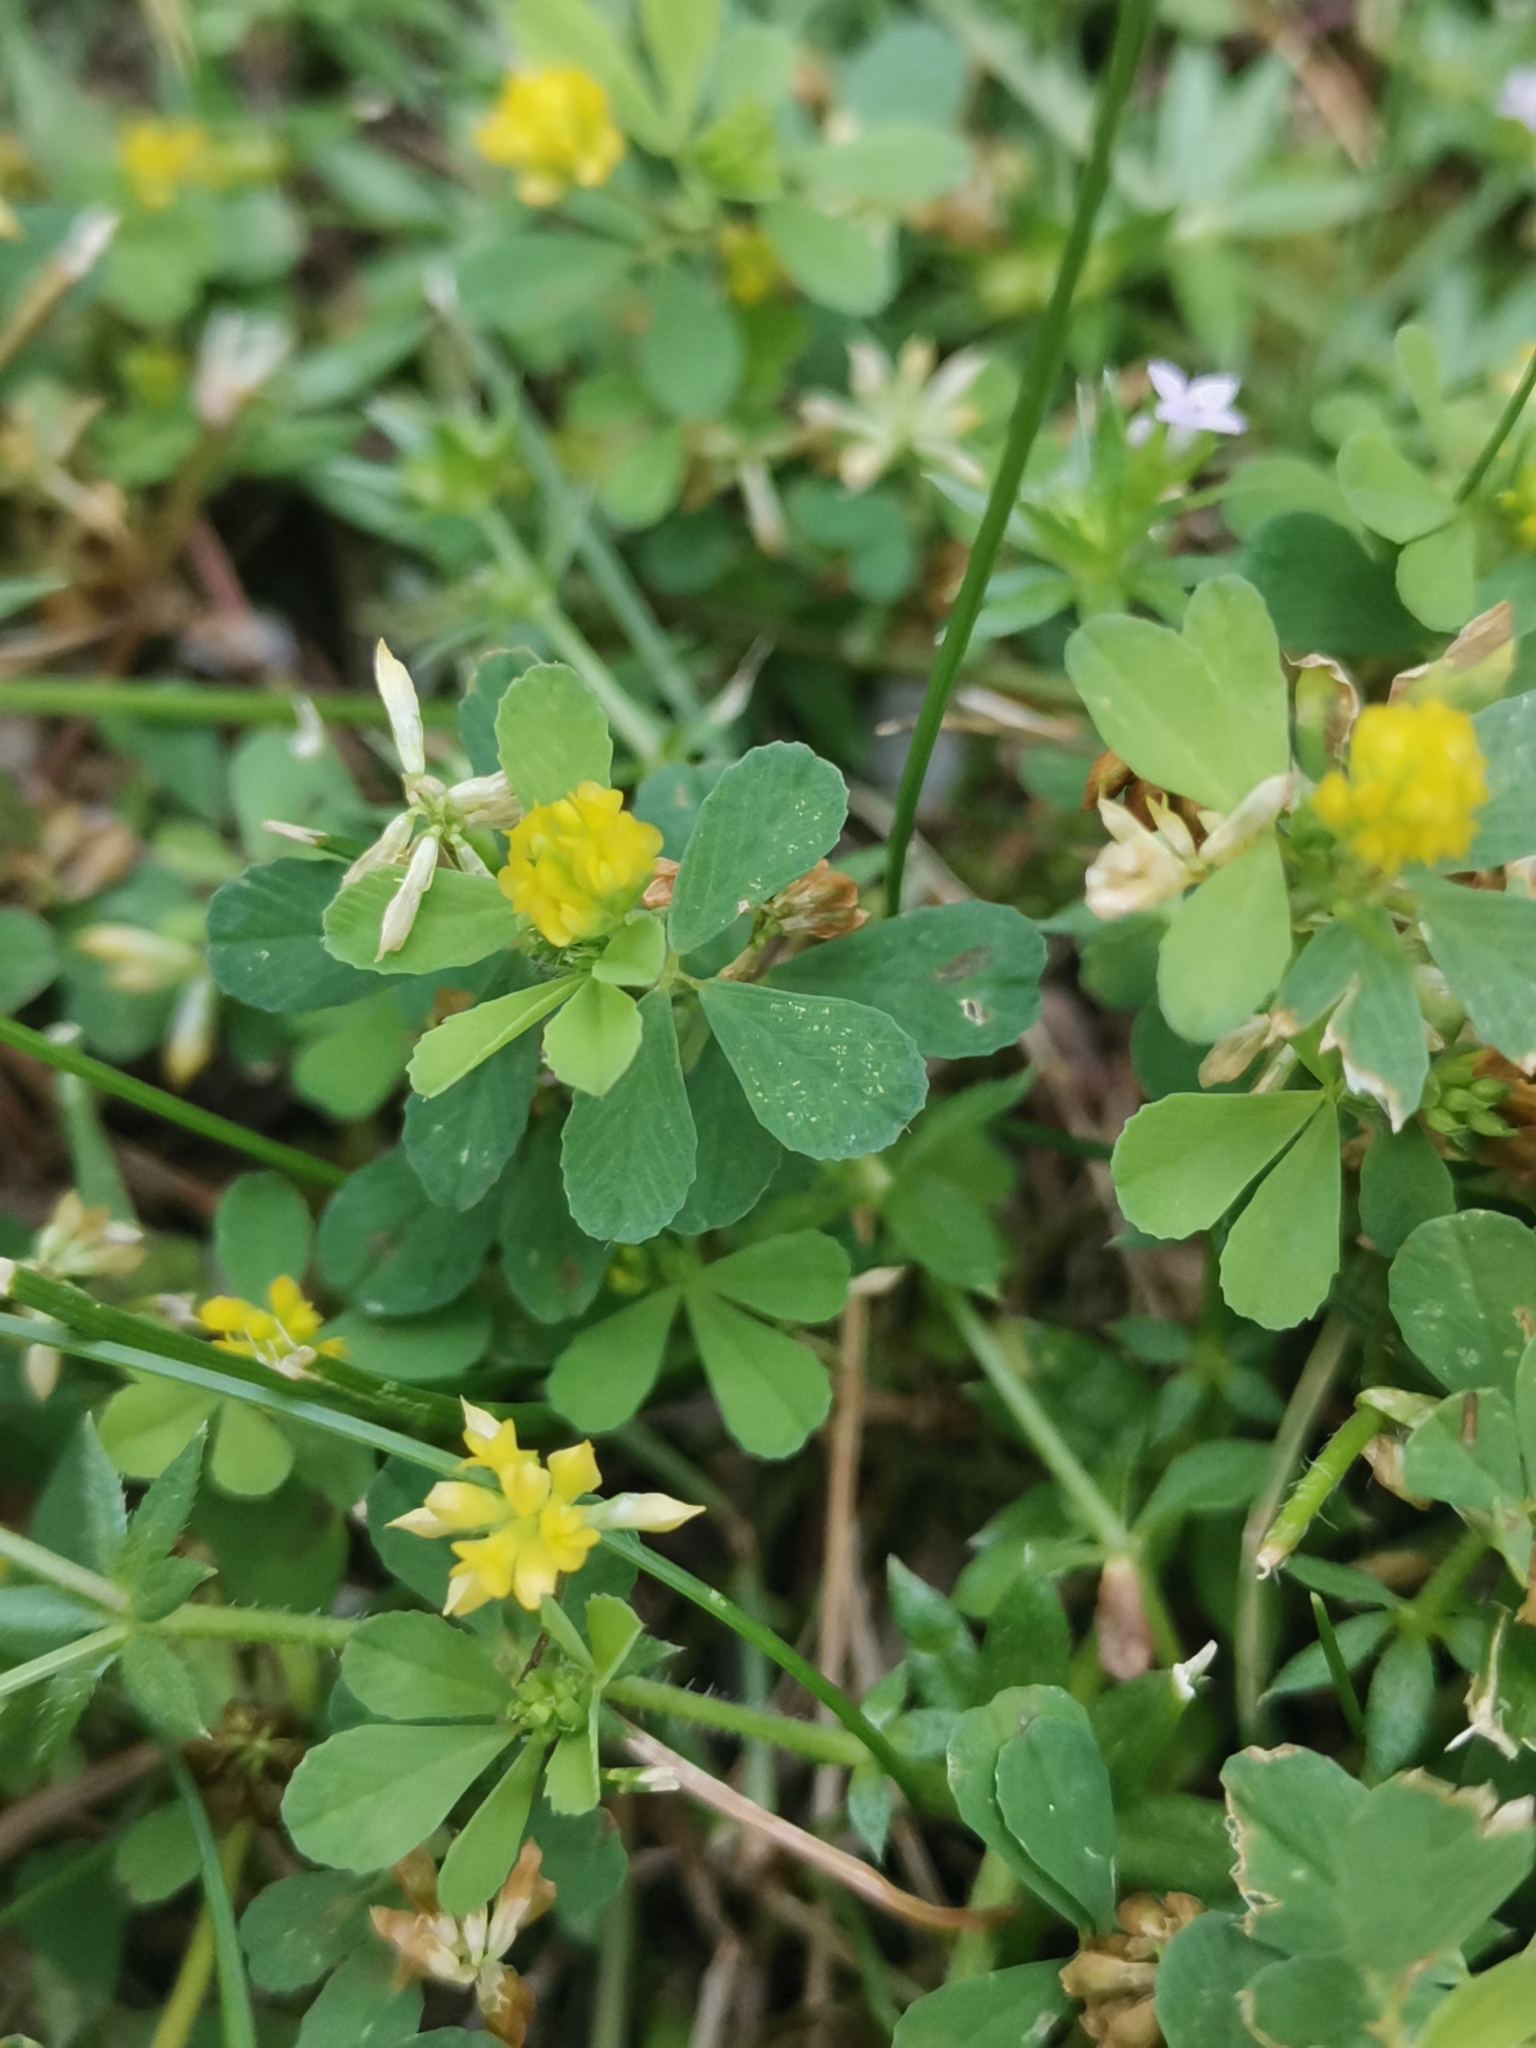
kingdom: Plantae
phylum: Tracheophyta
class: Magnoliopsida
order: Fabales
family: Fabaceae
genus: Trifolium
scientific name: Trifolium dubium
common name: Suckling clover
